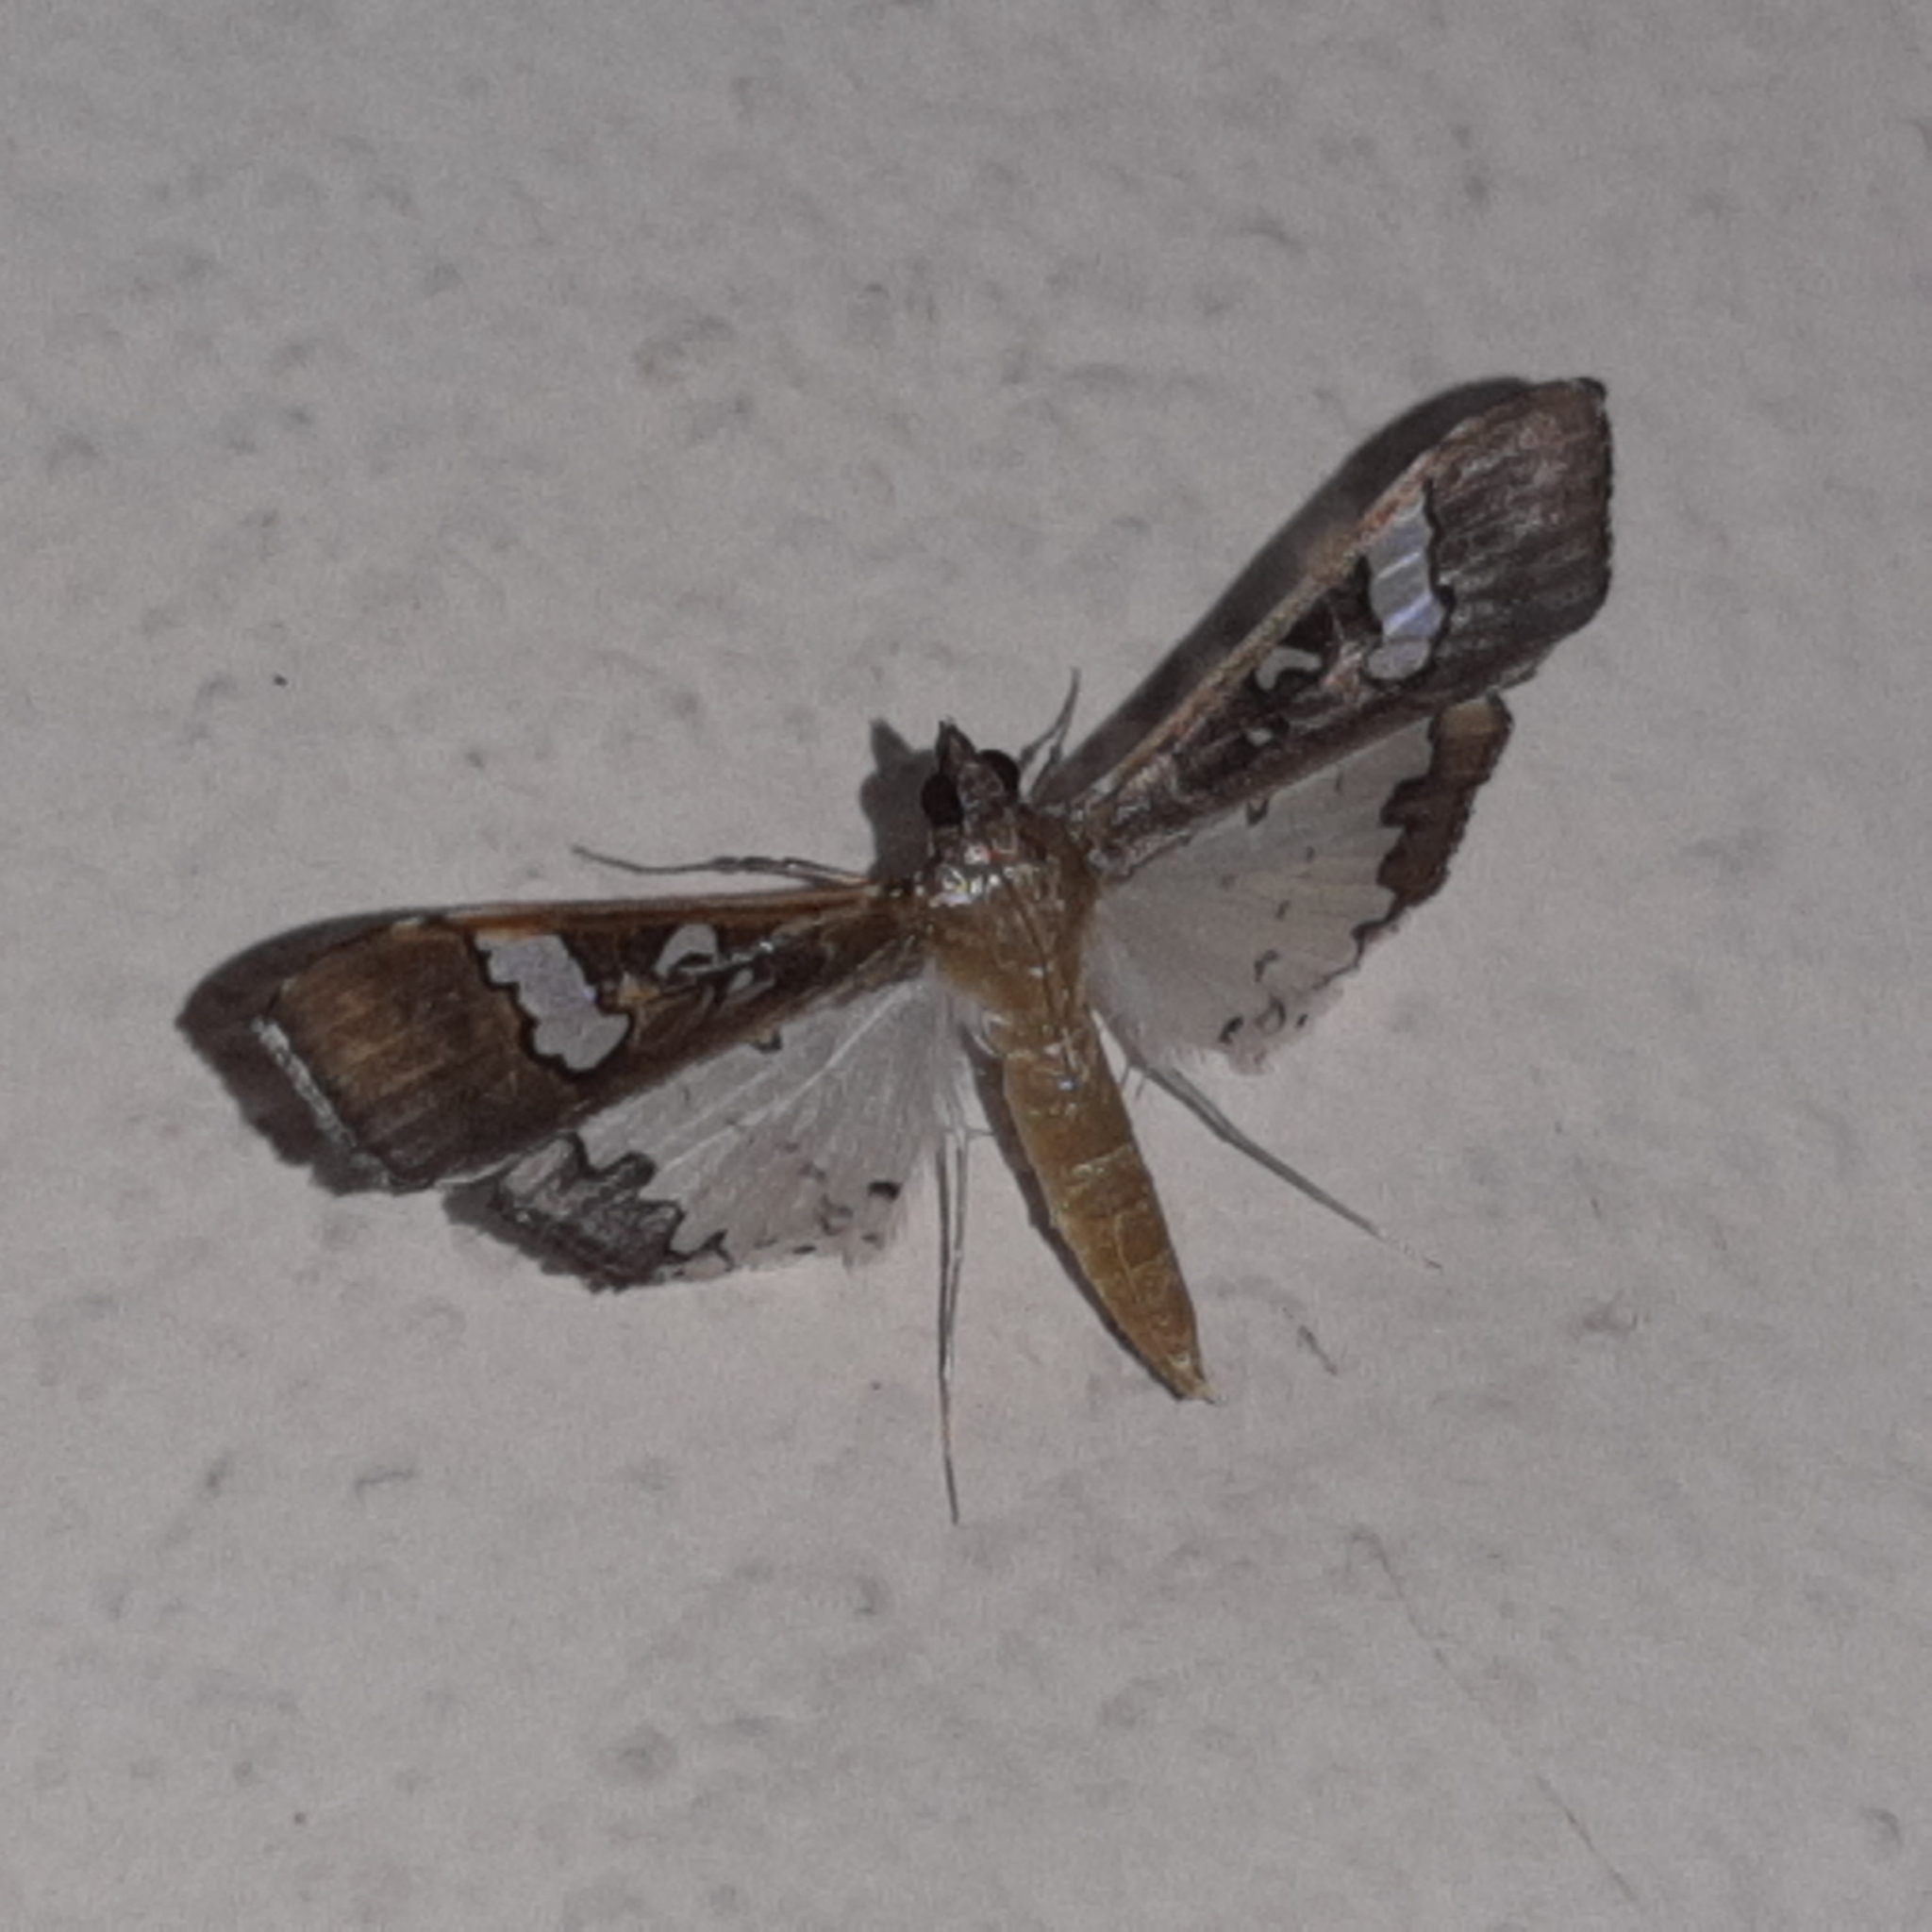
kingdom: Animalia
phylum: Arthropoda
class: Insecta
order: Lepidoptera
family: Crambidae
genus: Maruca
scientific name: Maruca vitrata
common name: Maruca pod borer
